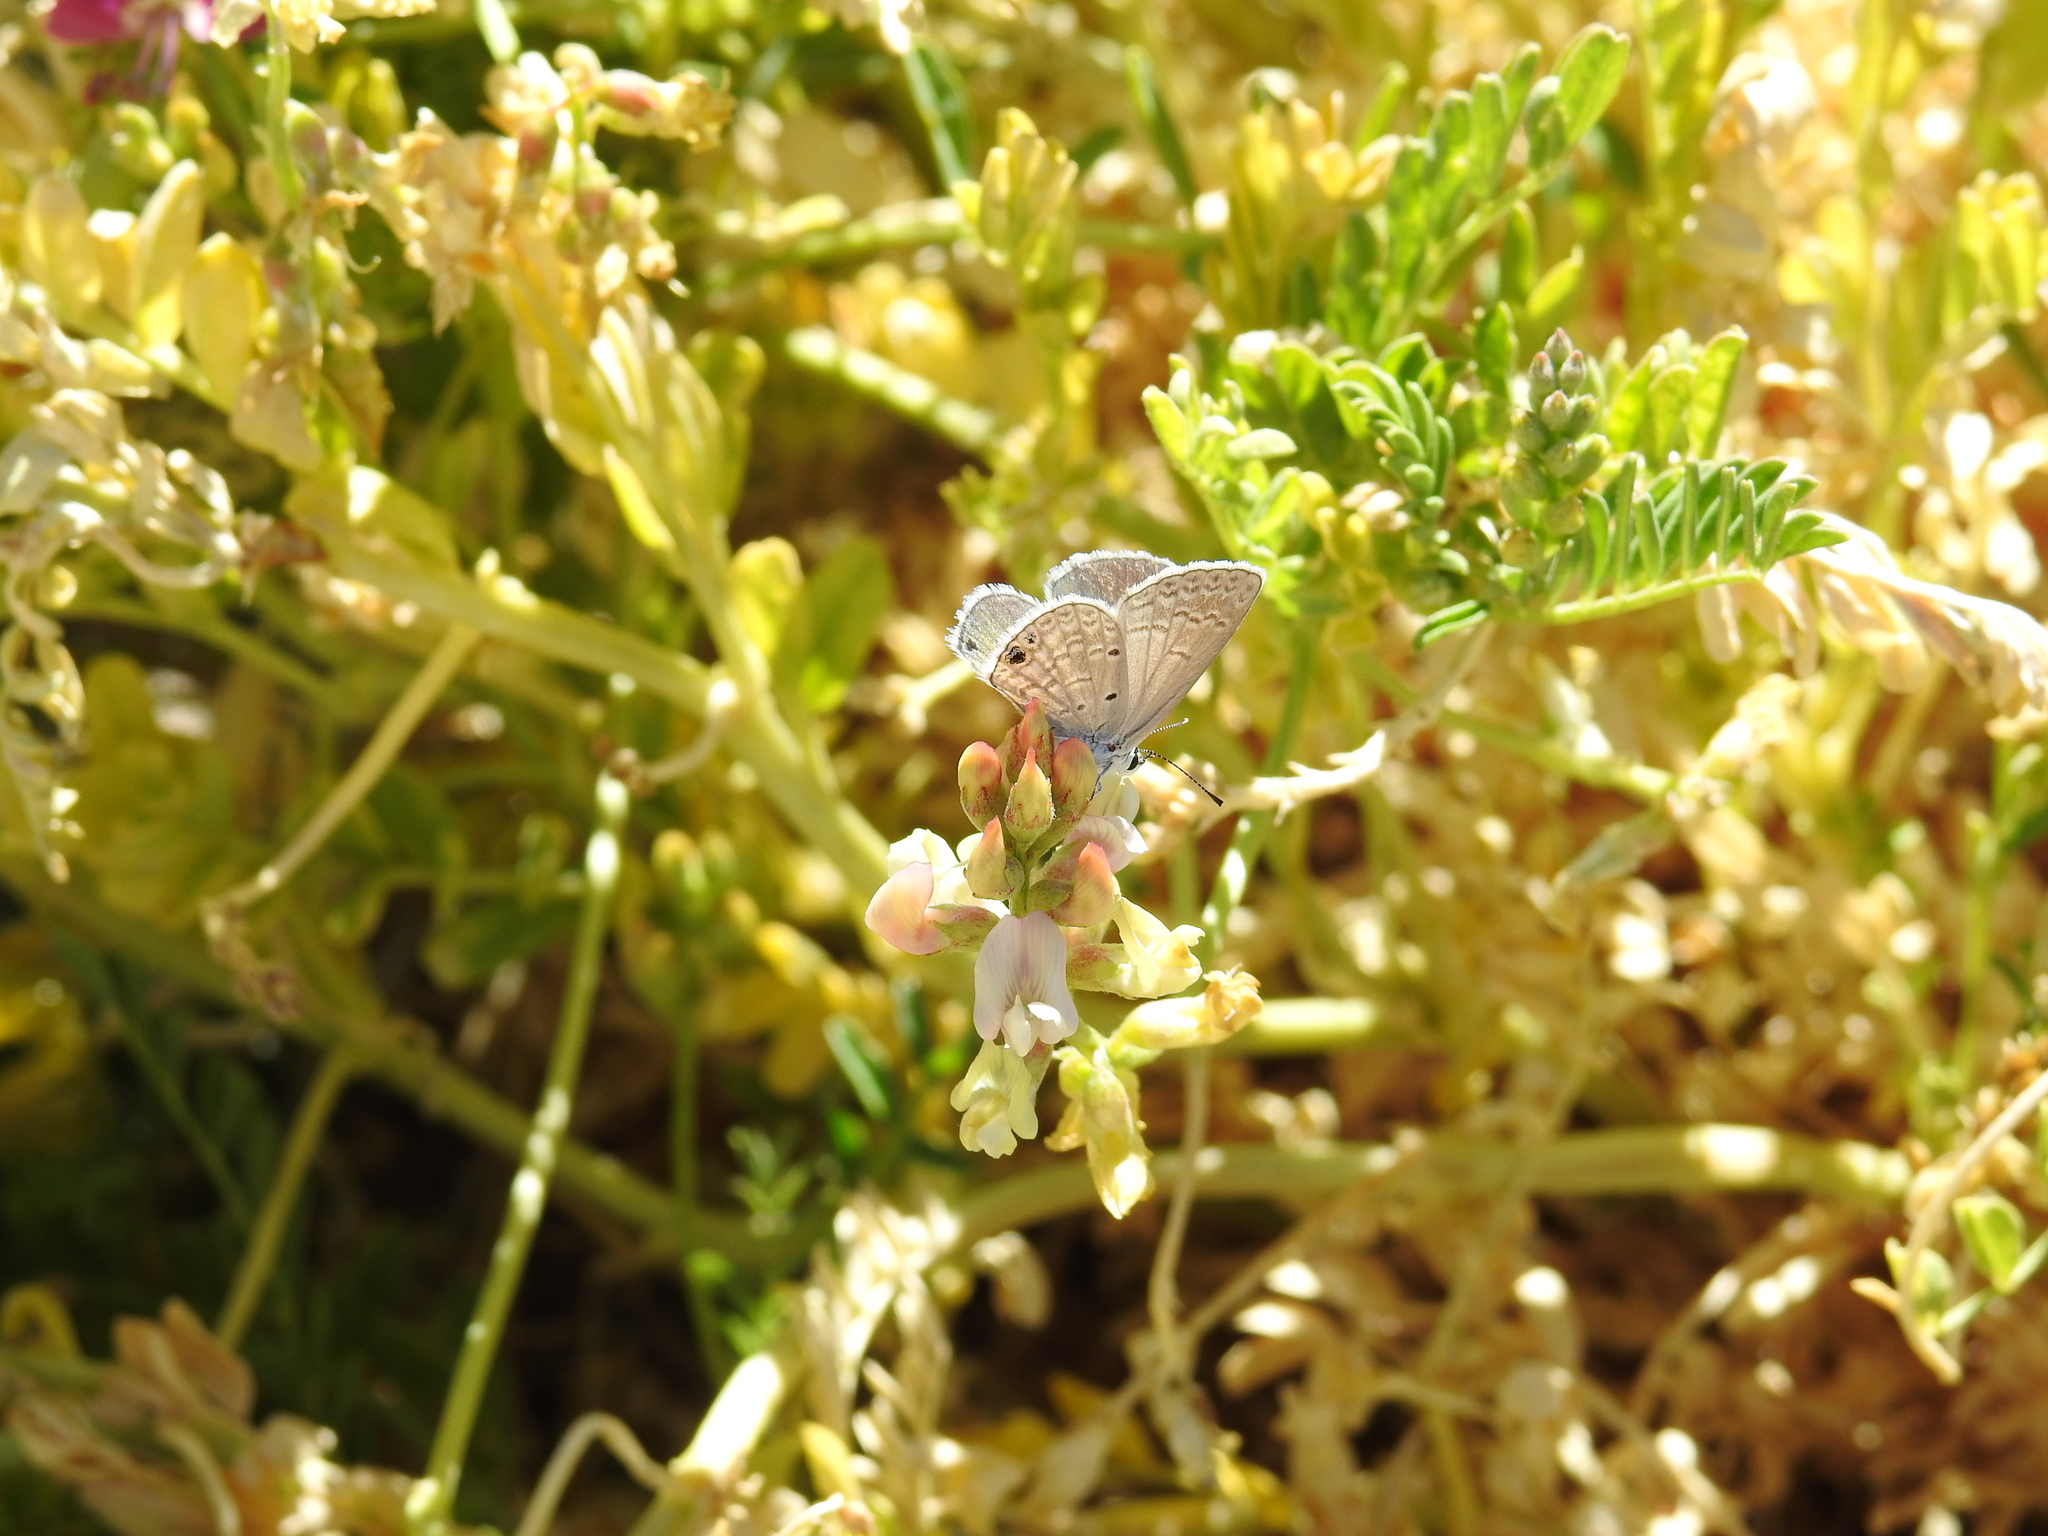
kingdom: Animalia
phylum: Arthropoda
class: Insecta
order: Lepidoptera
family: Lycaenidae
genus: Hemiargus
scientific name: Hemiargus ceraunus
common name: Ceraunus blue
